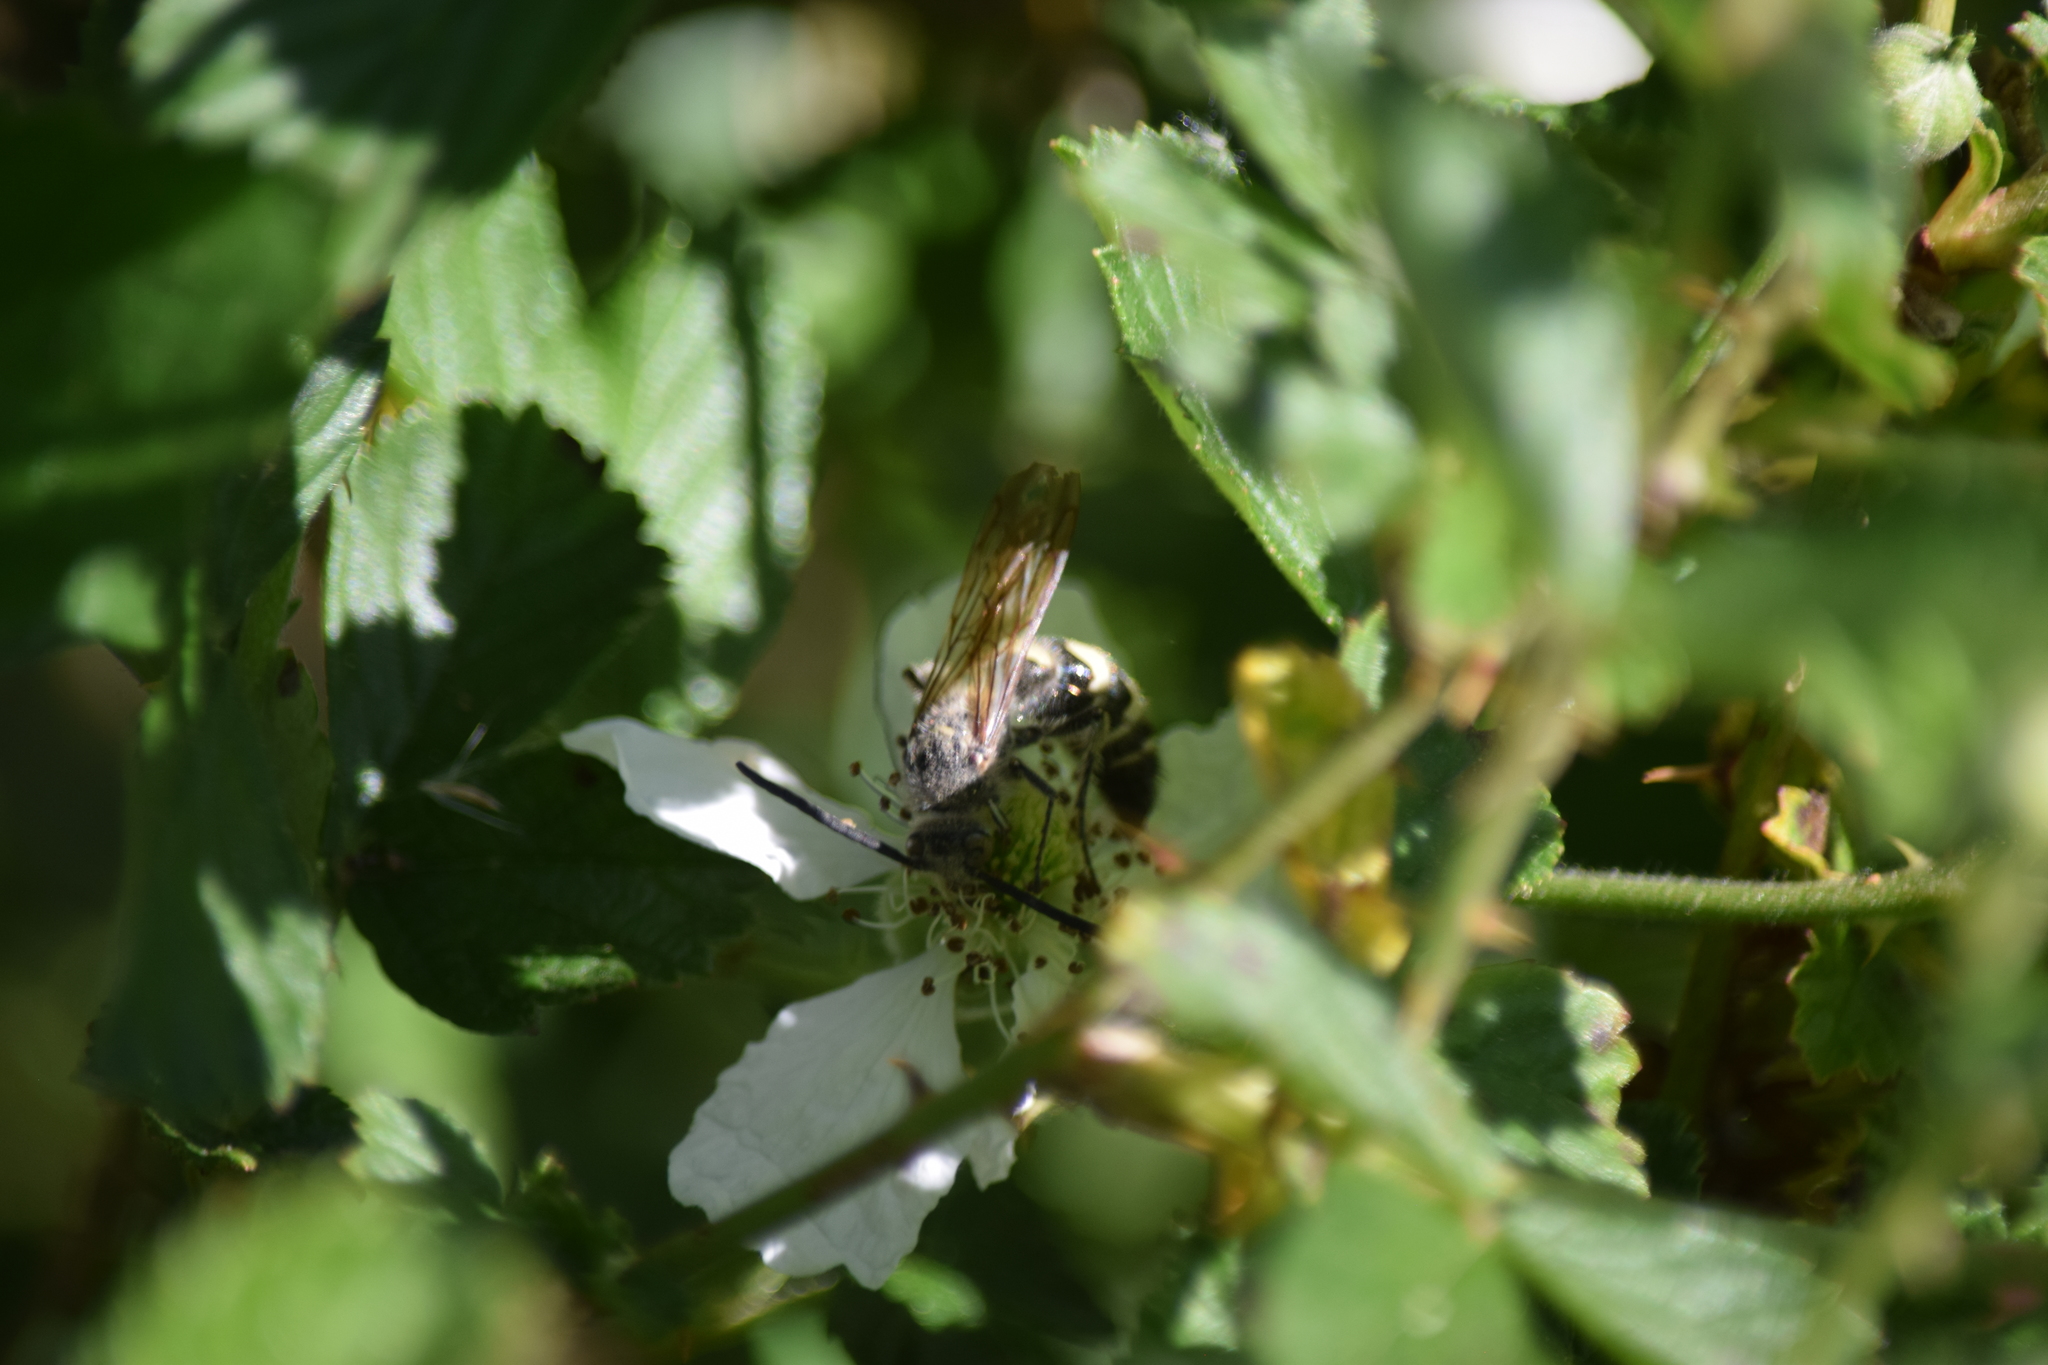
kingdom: Animalia
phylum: Arthropoda
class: Insecta
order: Hymenoptera
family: Scoliidae
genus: Dielis
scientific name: Dielis
